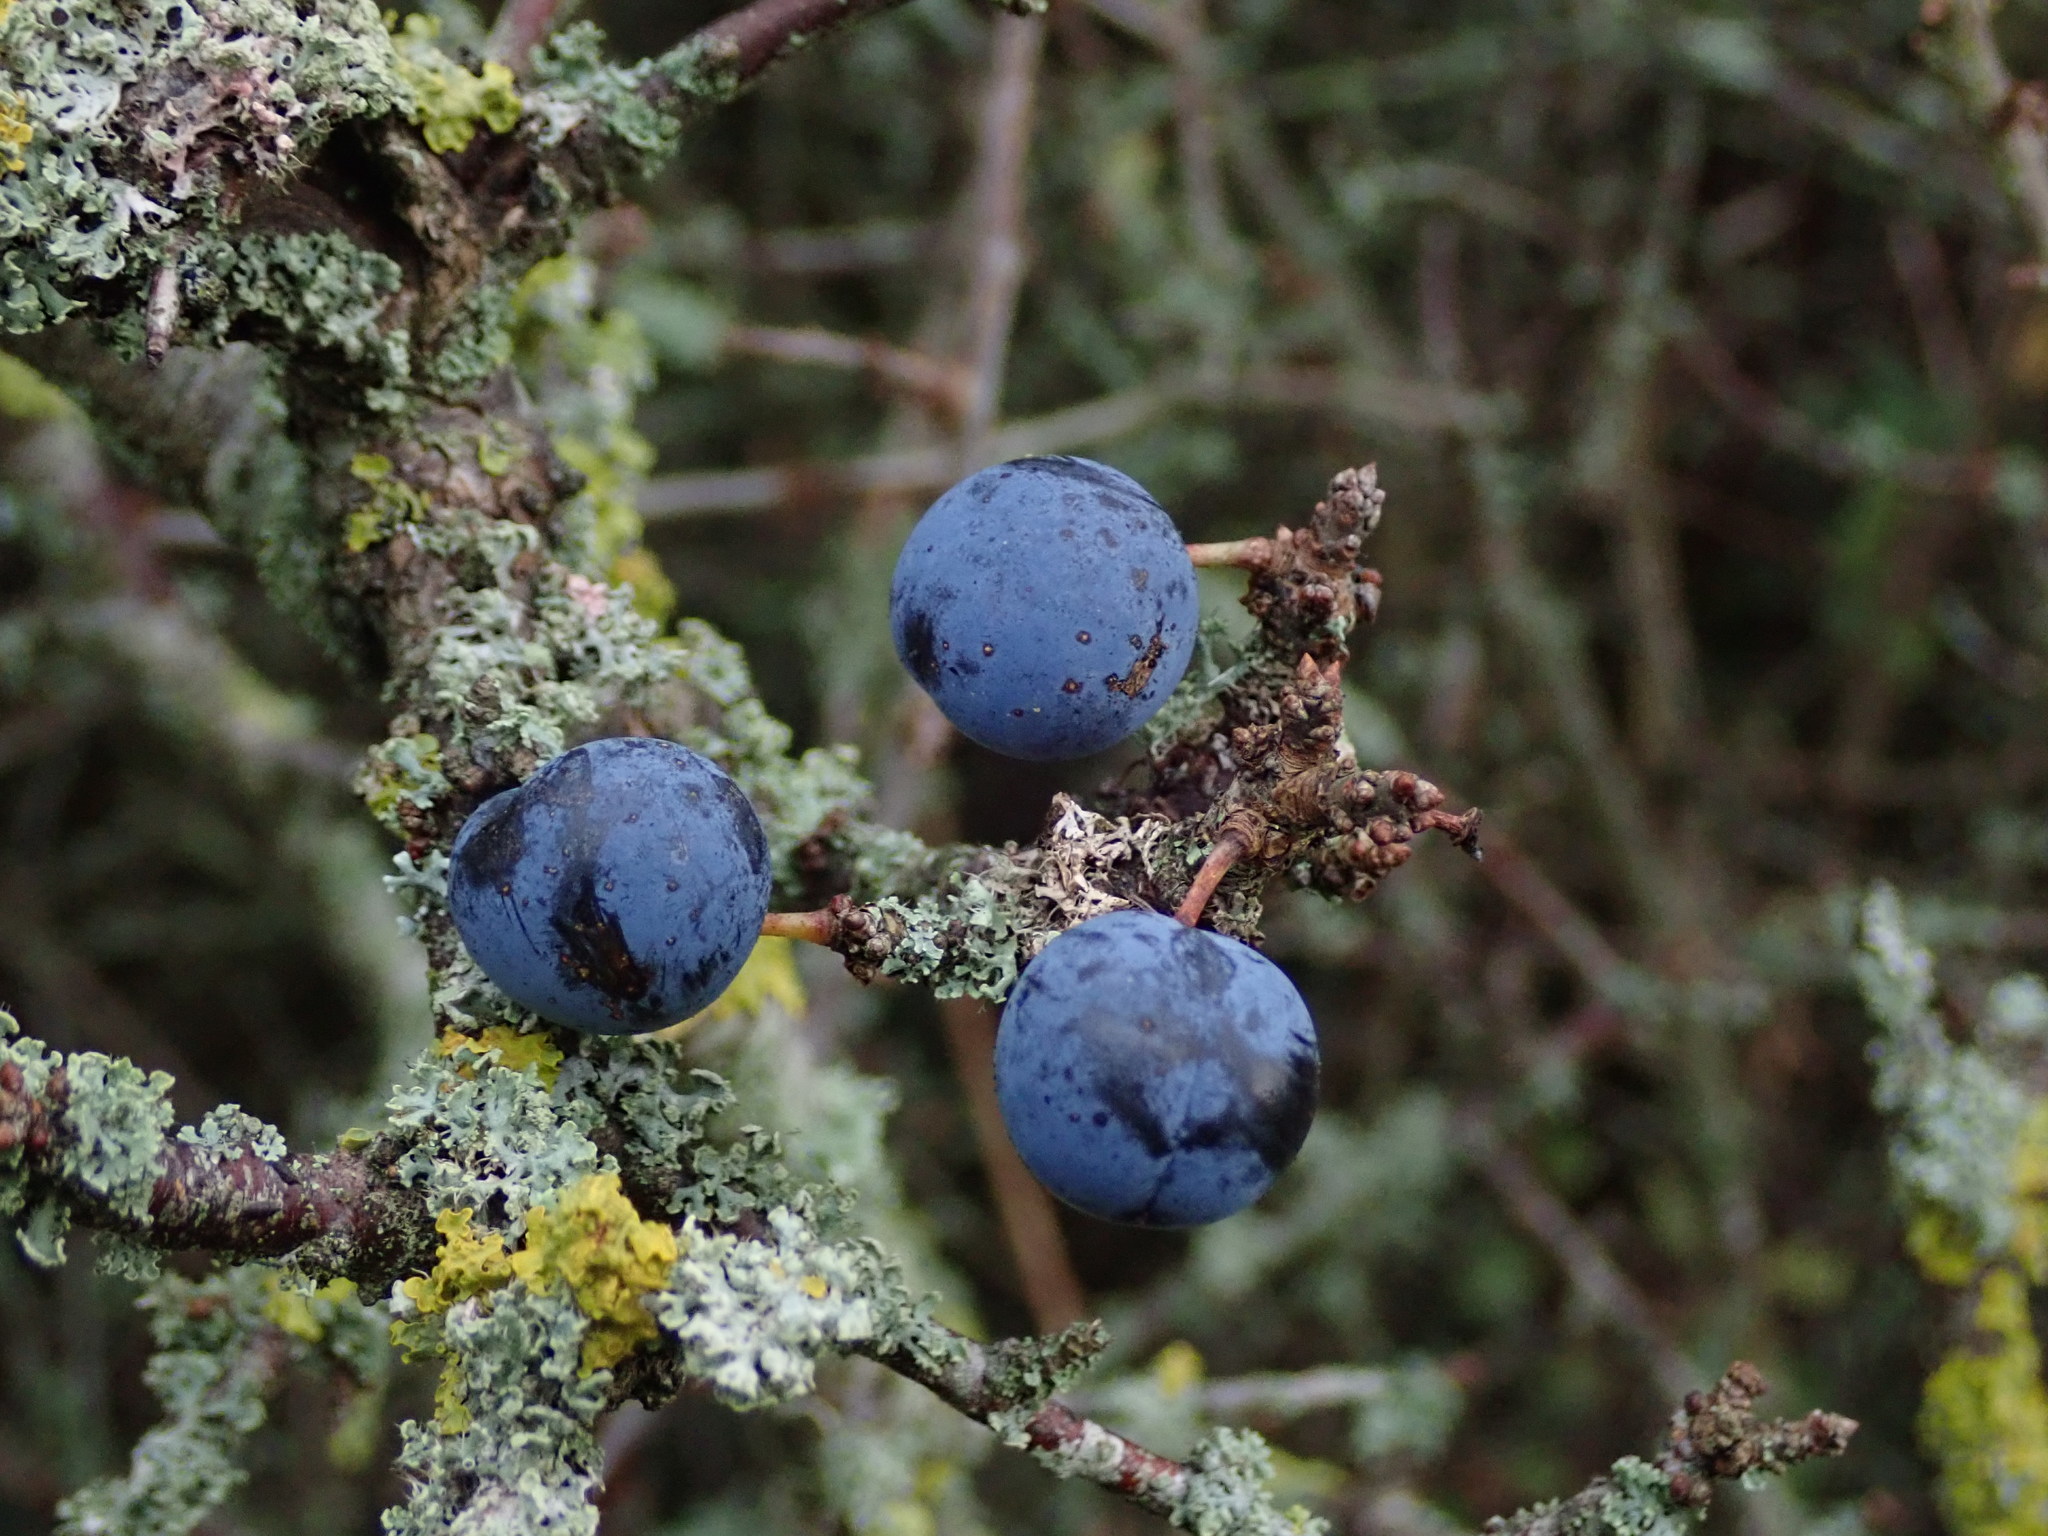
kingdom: Plantae
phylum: Tracheophyta
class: Magnoliopsida
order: Rosales
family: Rosaceae
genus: Prunus
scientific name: Prunus spinosa
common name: Blackthorn
